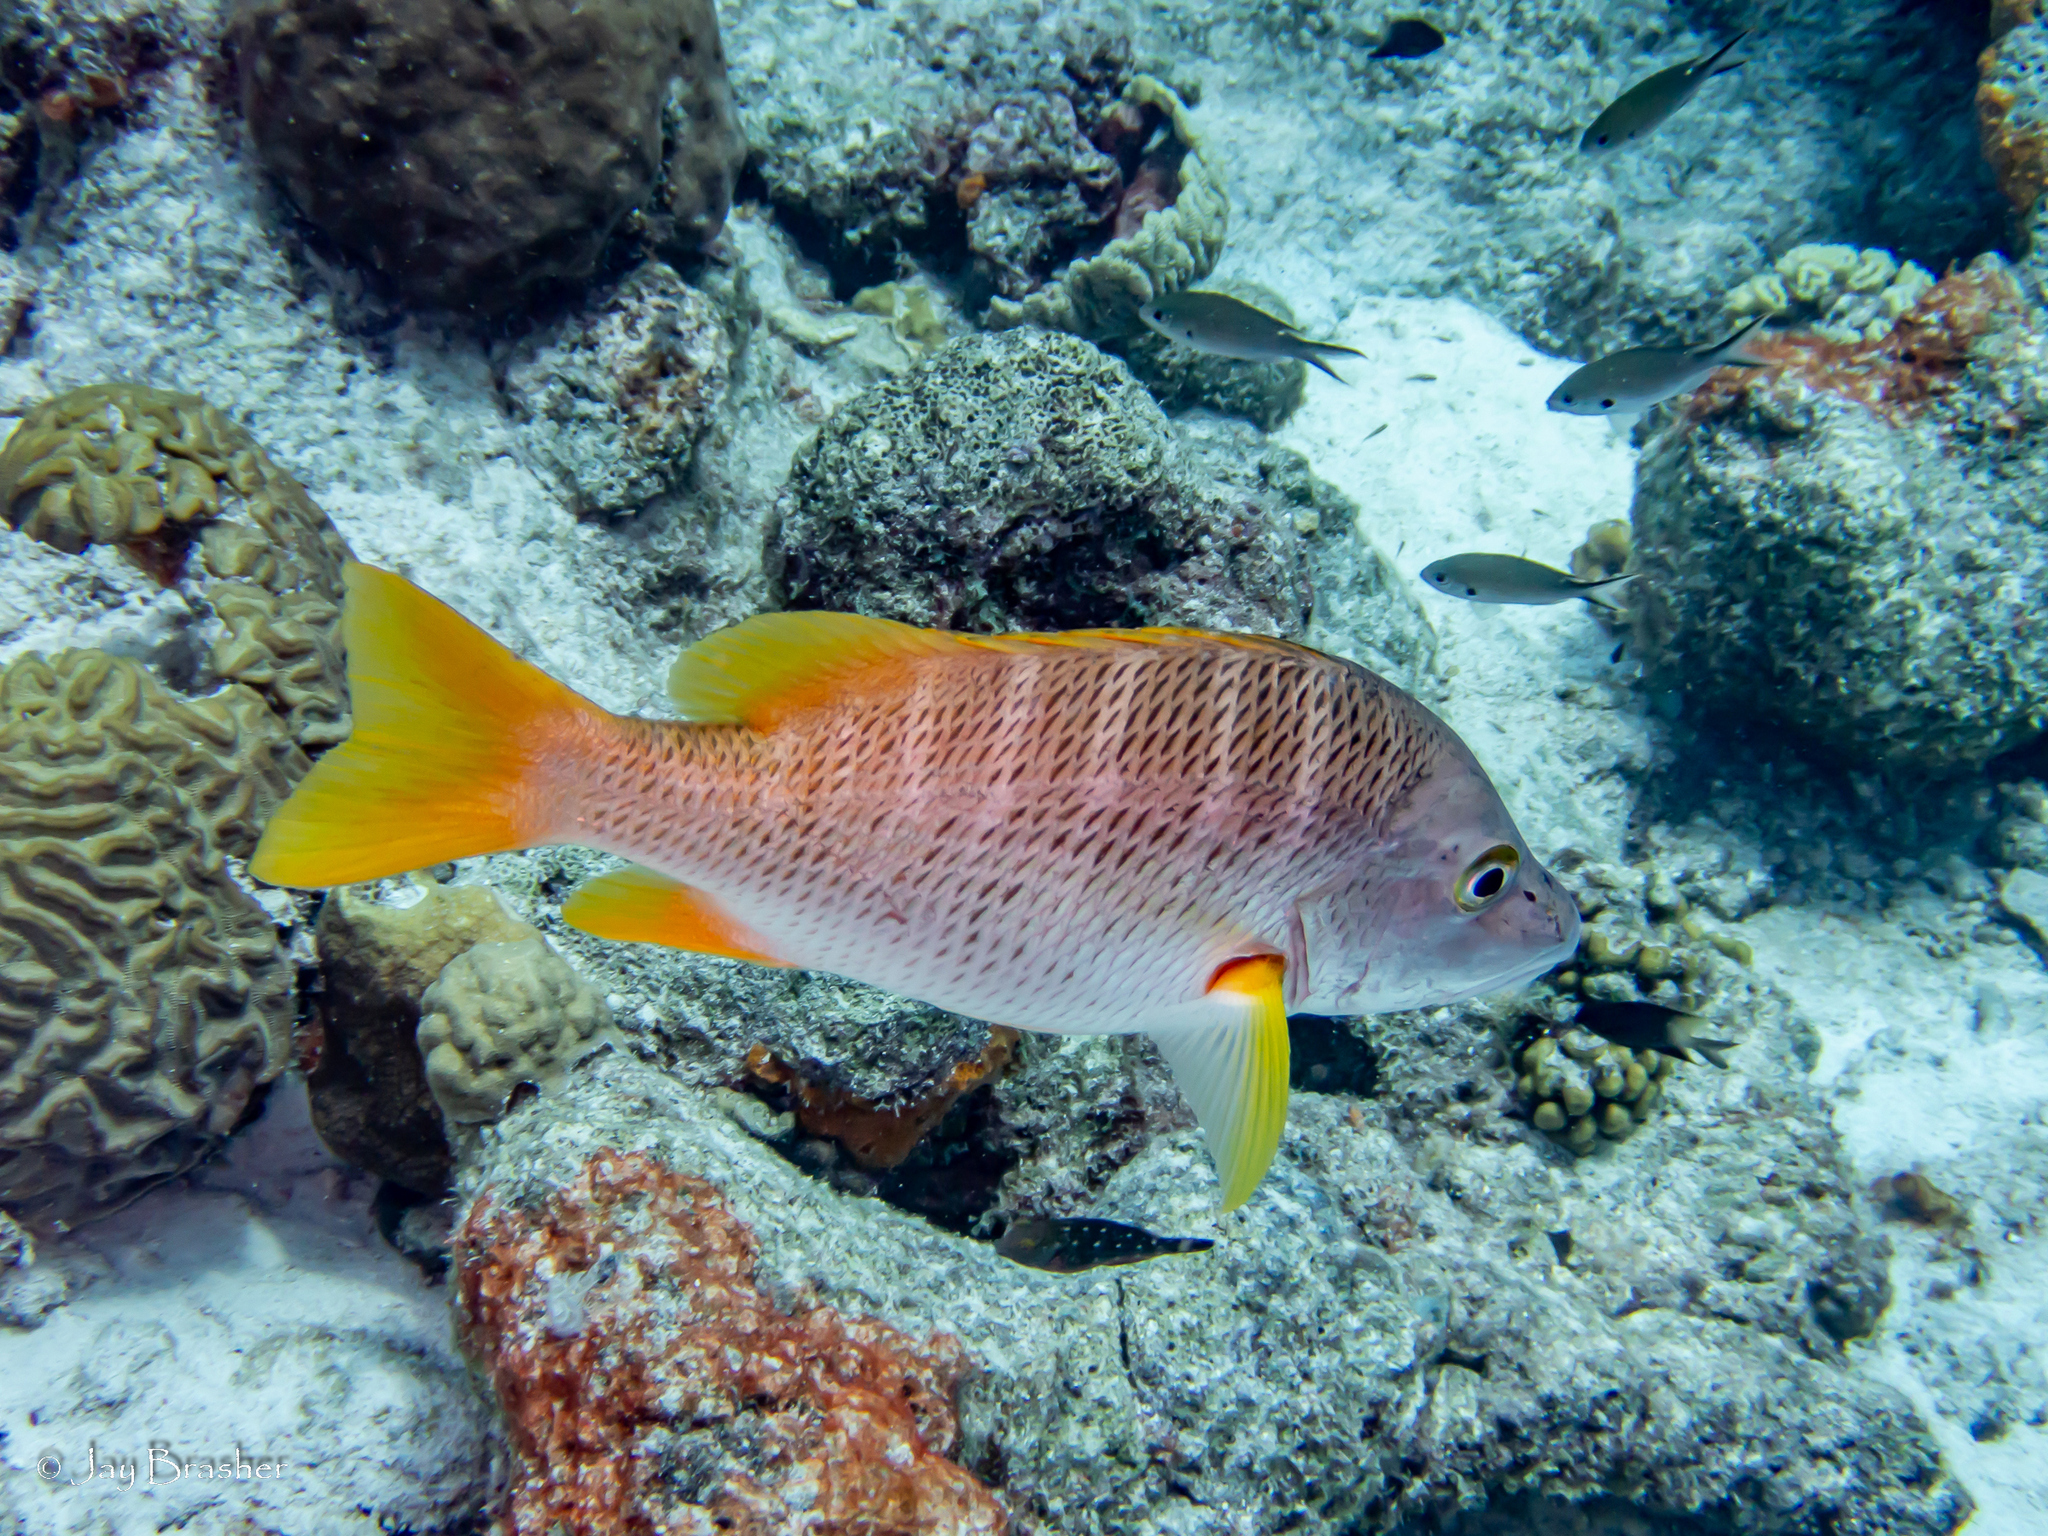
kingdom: Animalia
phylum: Chordata
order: Perciformes
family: Lutjanidae
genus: Lutjanus
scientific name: Lutjanus apodus
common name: Schoolmaster
